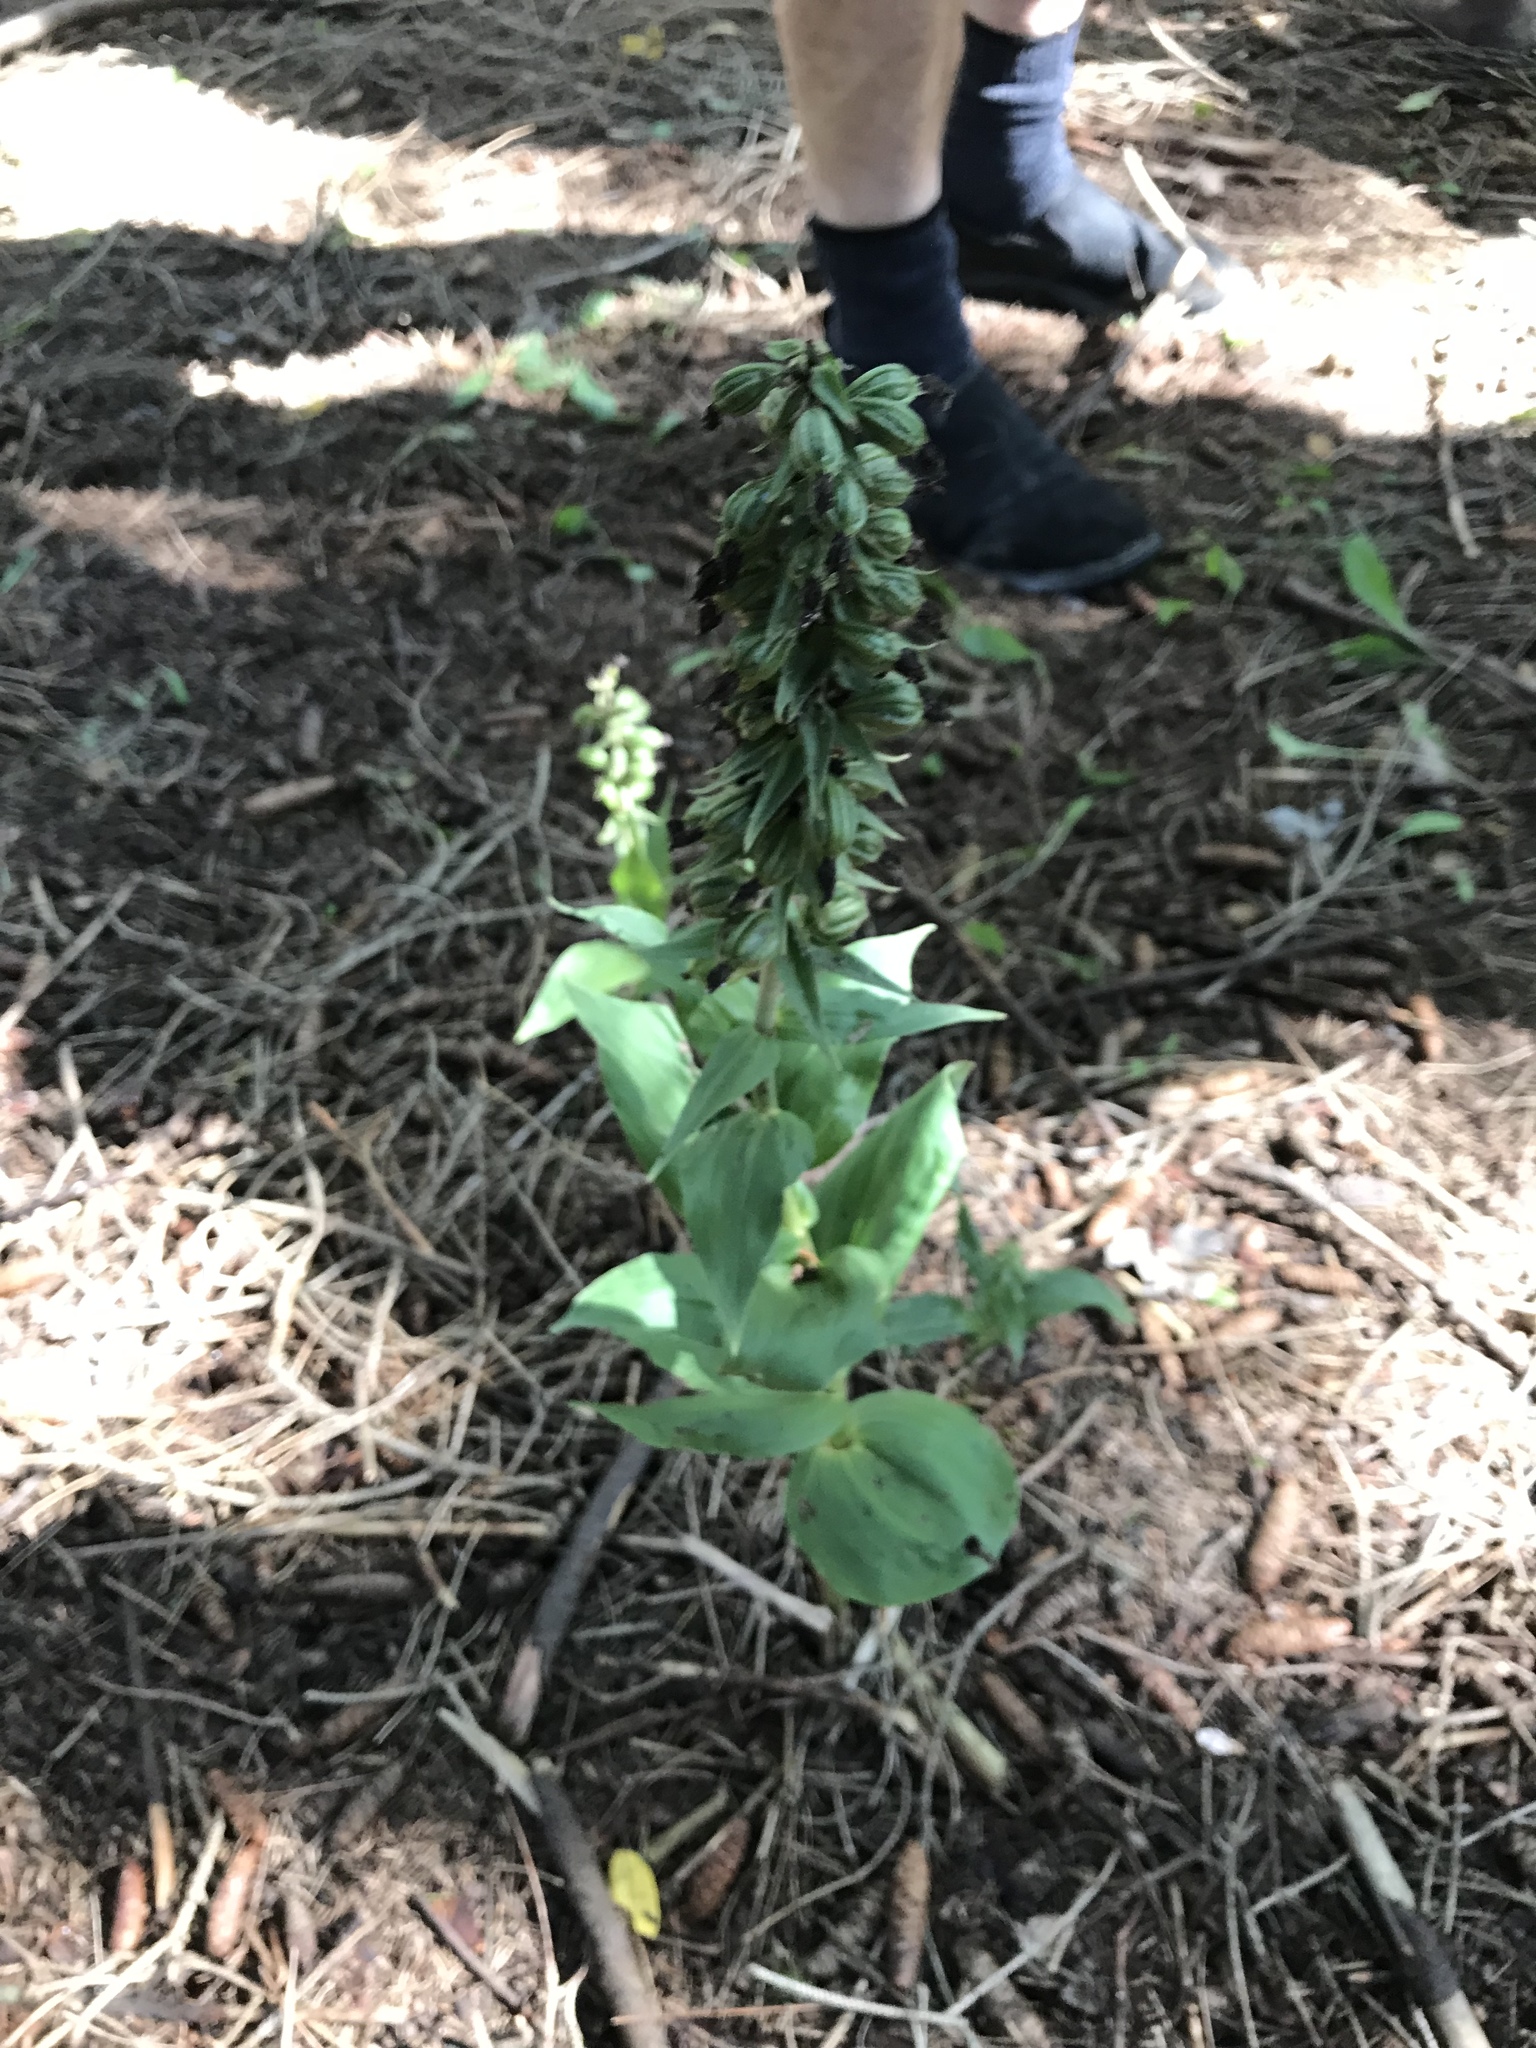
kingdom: Plantae
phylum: Tracheophyta
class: Liliopsida
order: Asparagales
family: Orchidaceae
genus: Epipactis
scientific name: Epipactis helleborine
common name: Broad-leaved helleborine
